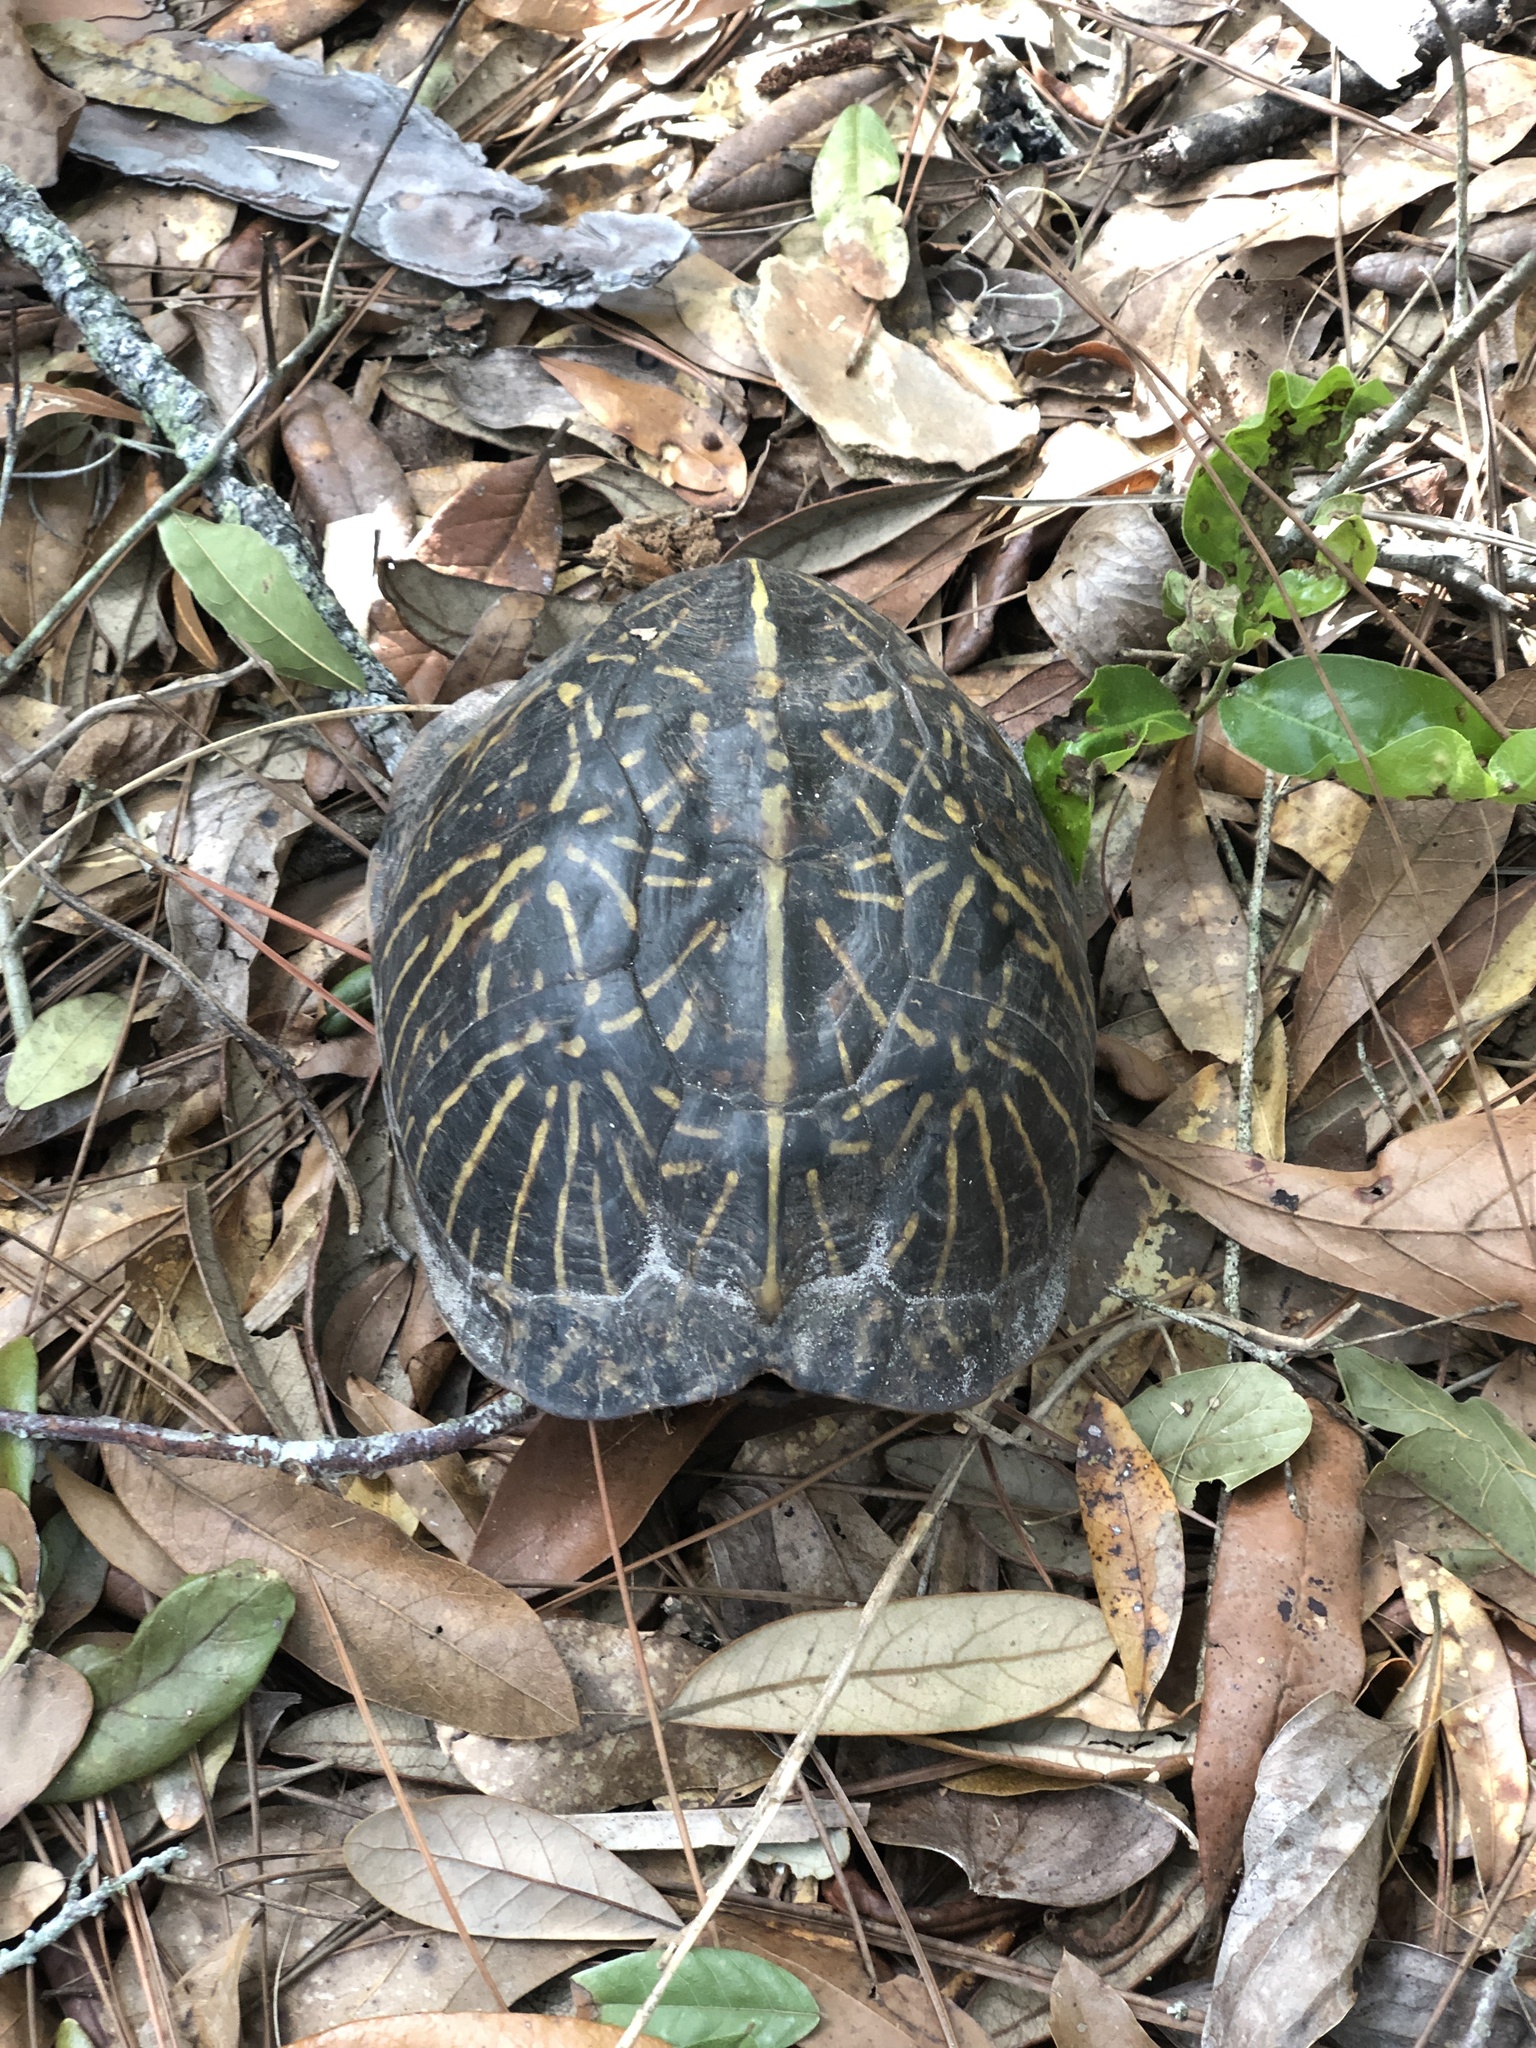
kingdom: Animalia
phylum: Chordata
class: Testudines
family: Emydidae
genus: Terrapene
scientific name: Terrapene carolina
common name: Common box turtle
